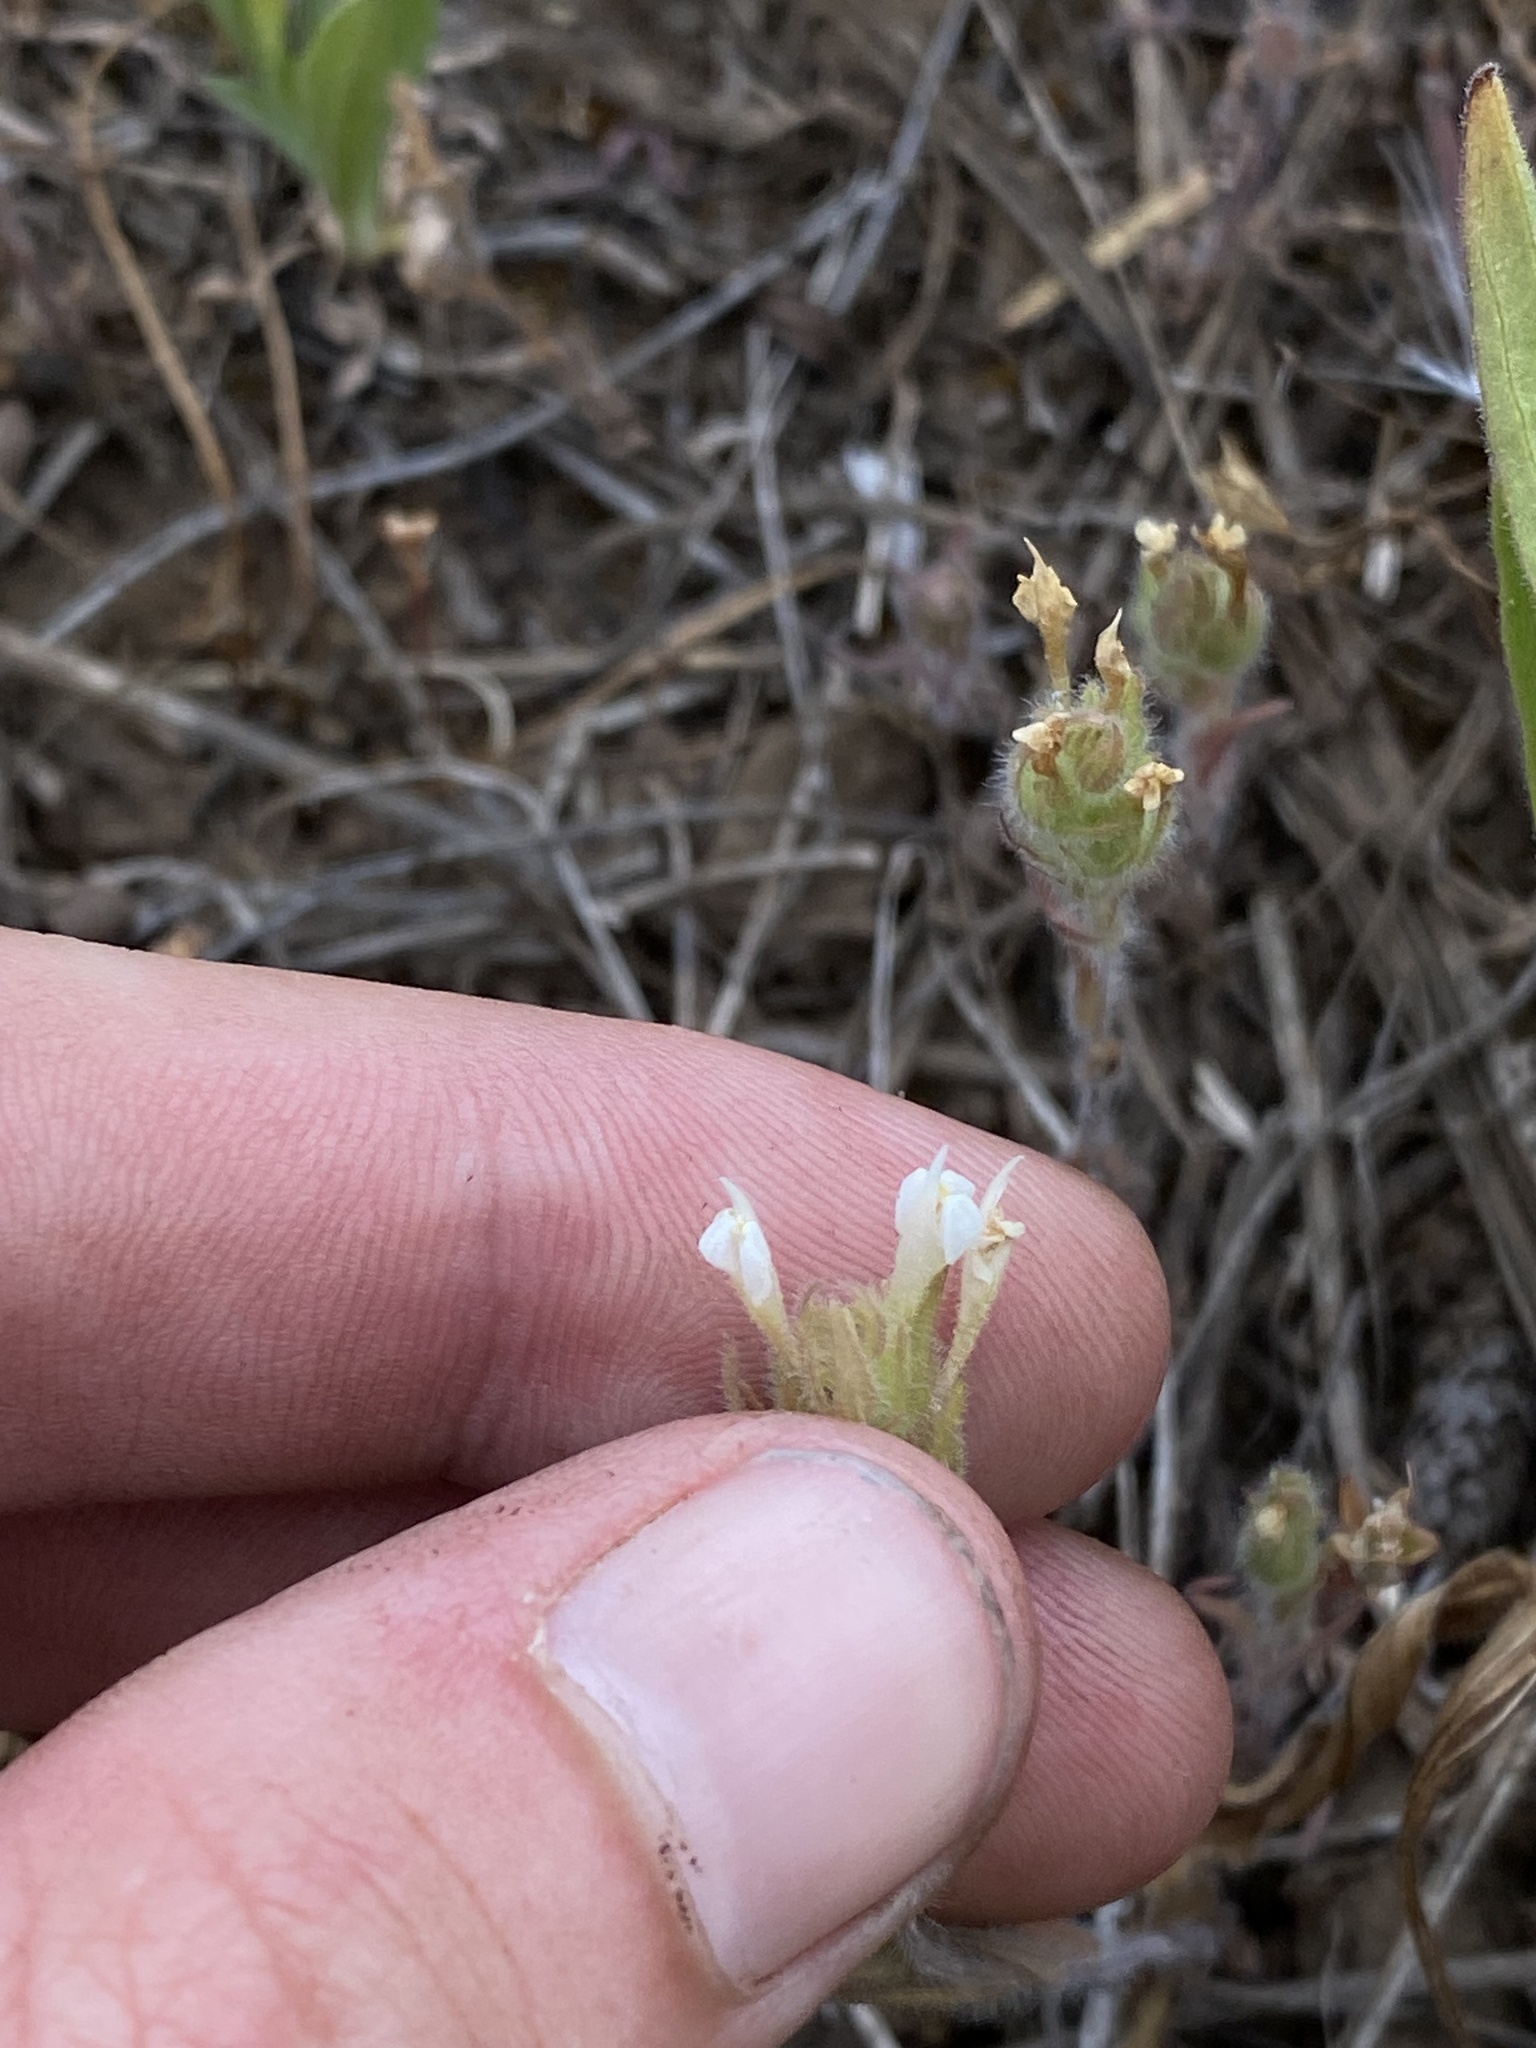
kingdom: Plantae
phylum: Tracheophyta
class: Magnoliopsida
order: Lamiales
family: Orobanchaceae
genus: Castilleja
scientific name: Castilleja tenuis
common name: Hairy indian paintbrush
